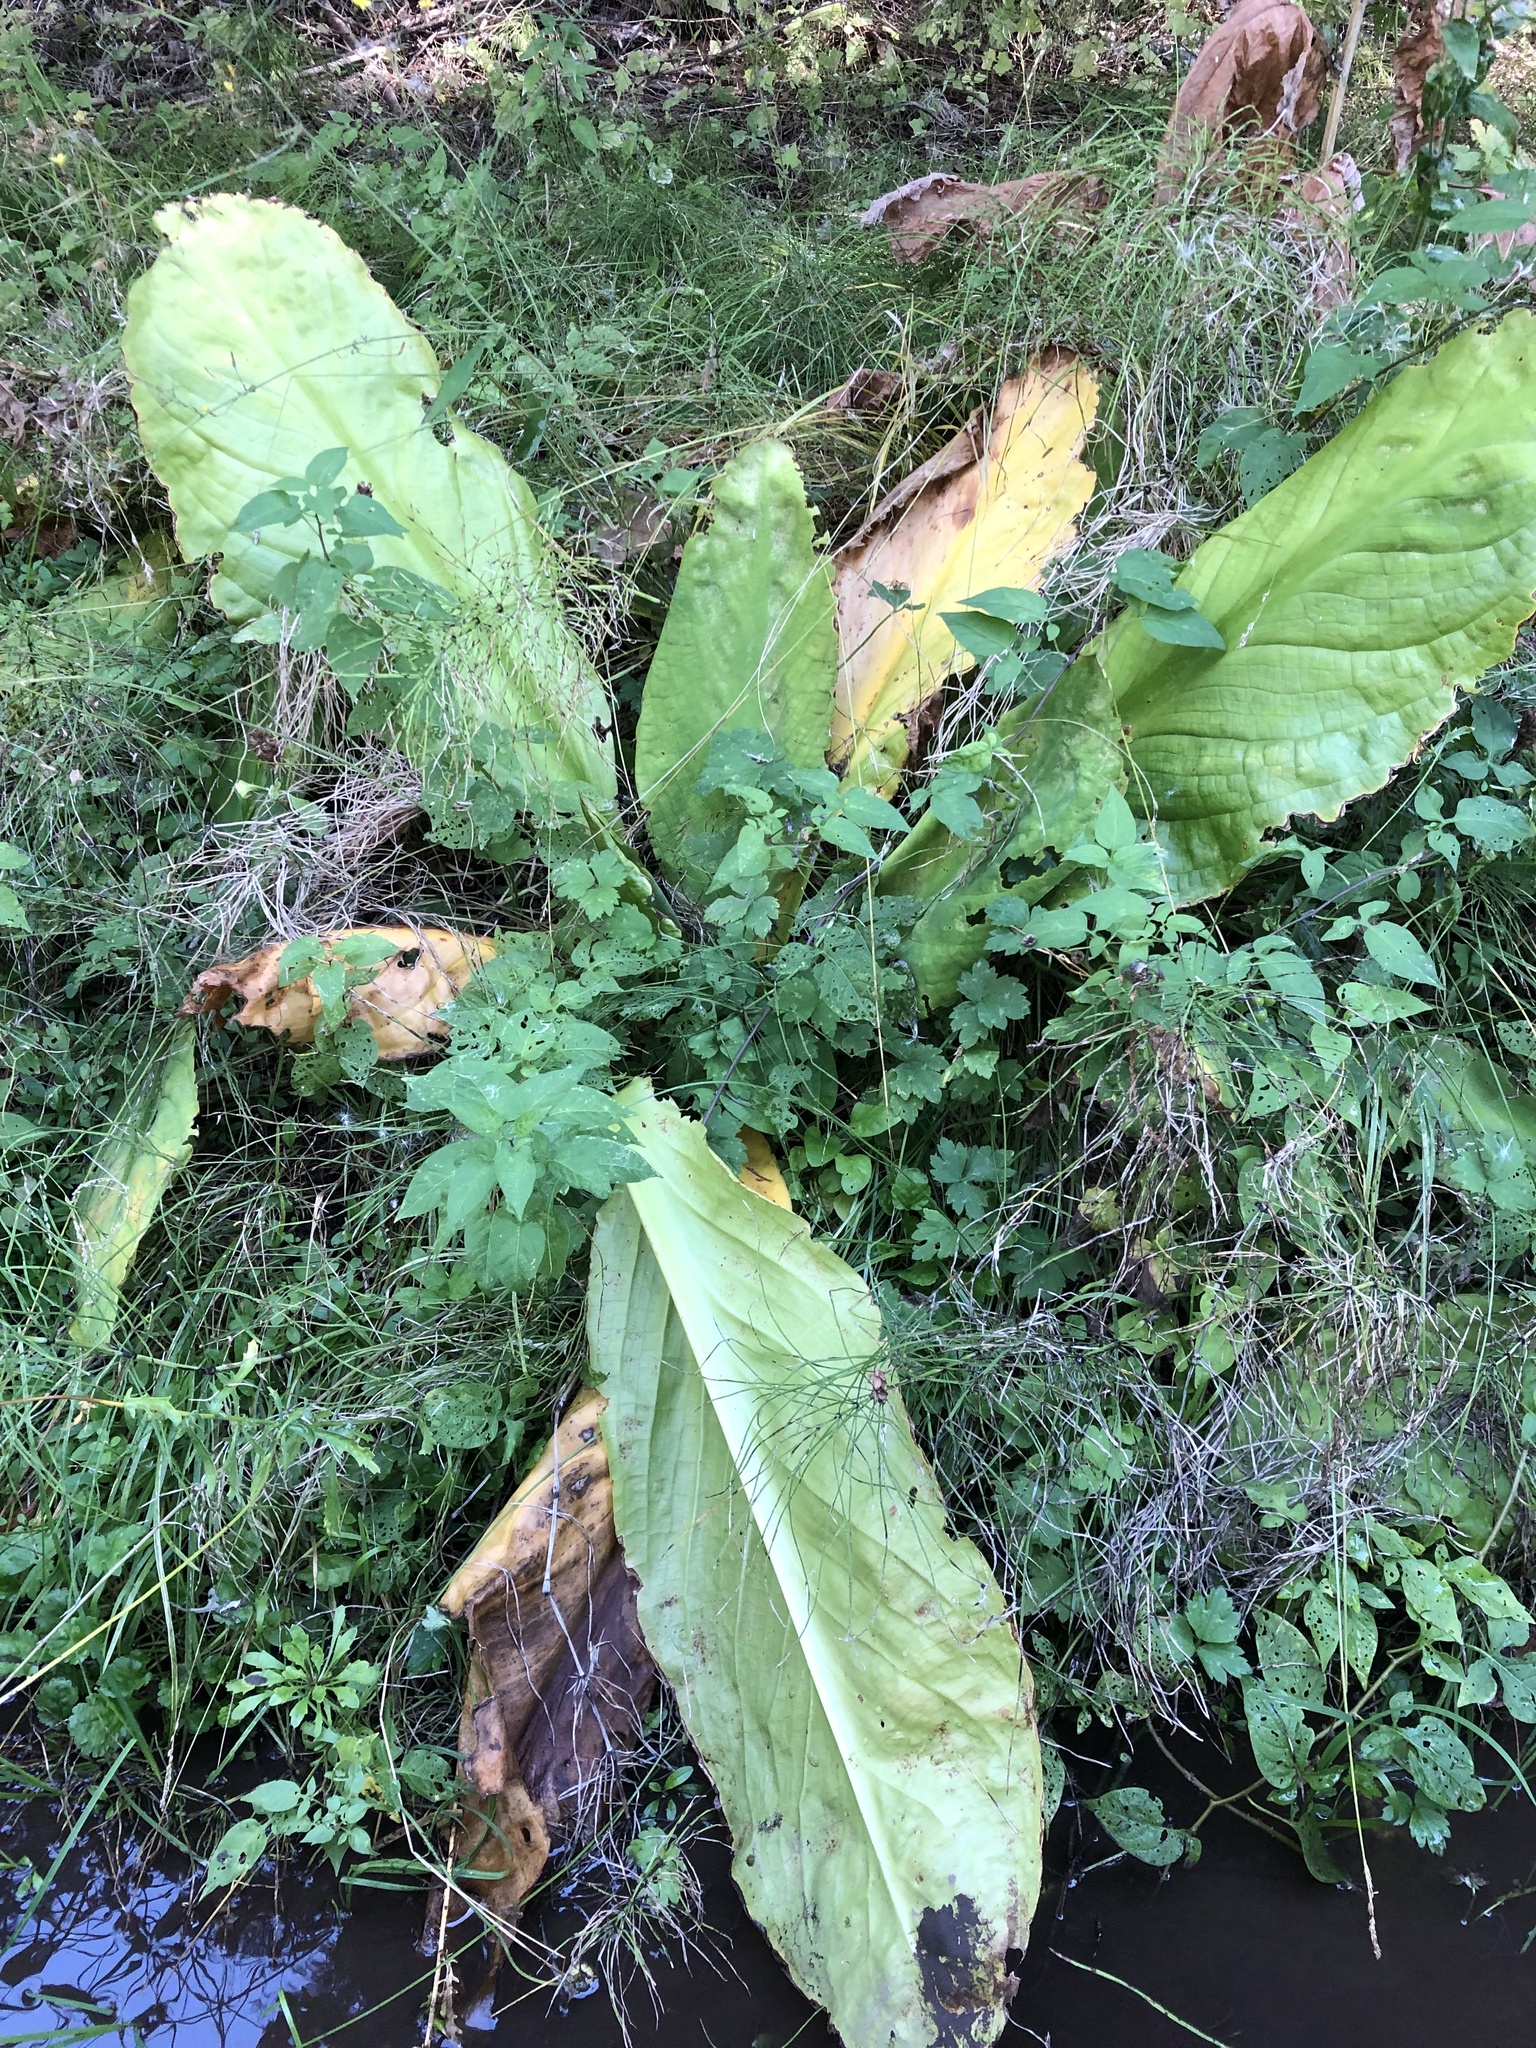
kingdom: Plantae
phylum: Tracheophyta
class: Liliopsida
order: Alismatales
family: Araceae
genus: Lysichiton
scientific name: Lysichiton americanus
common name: American skunk cabbage
